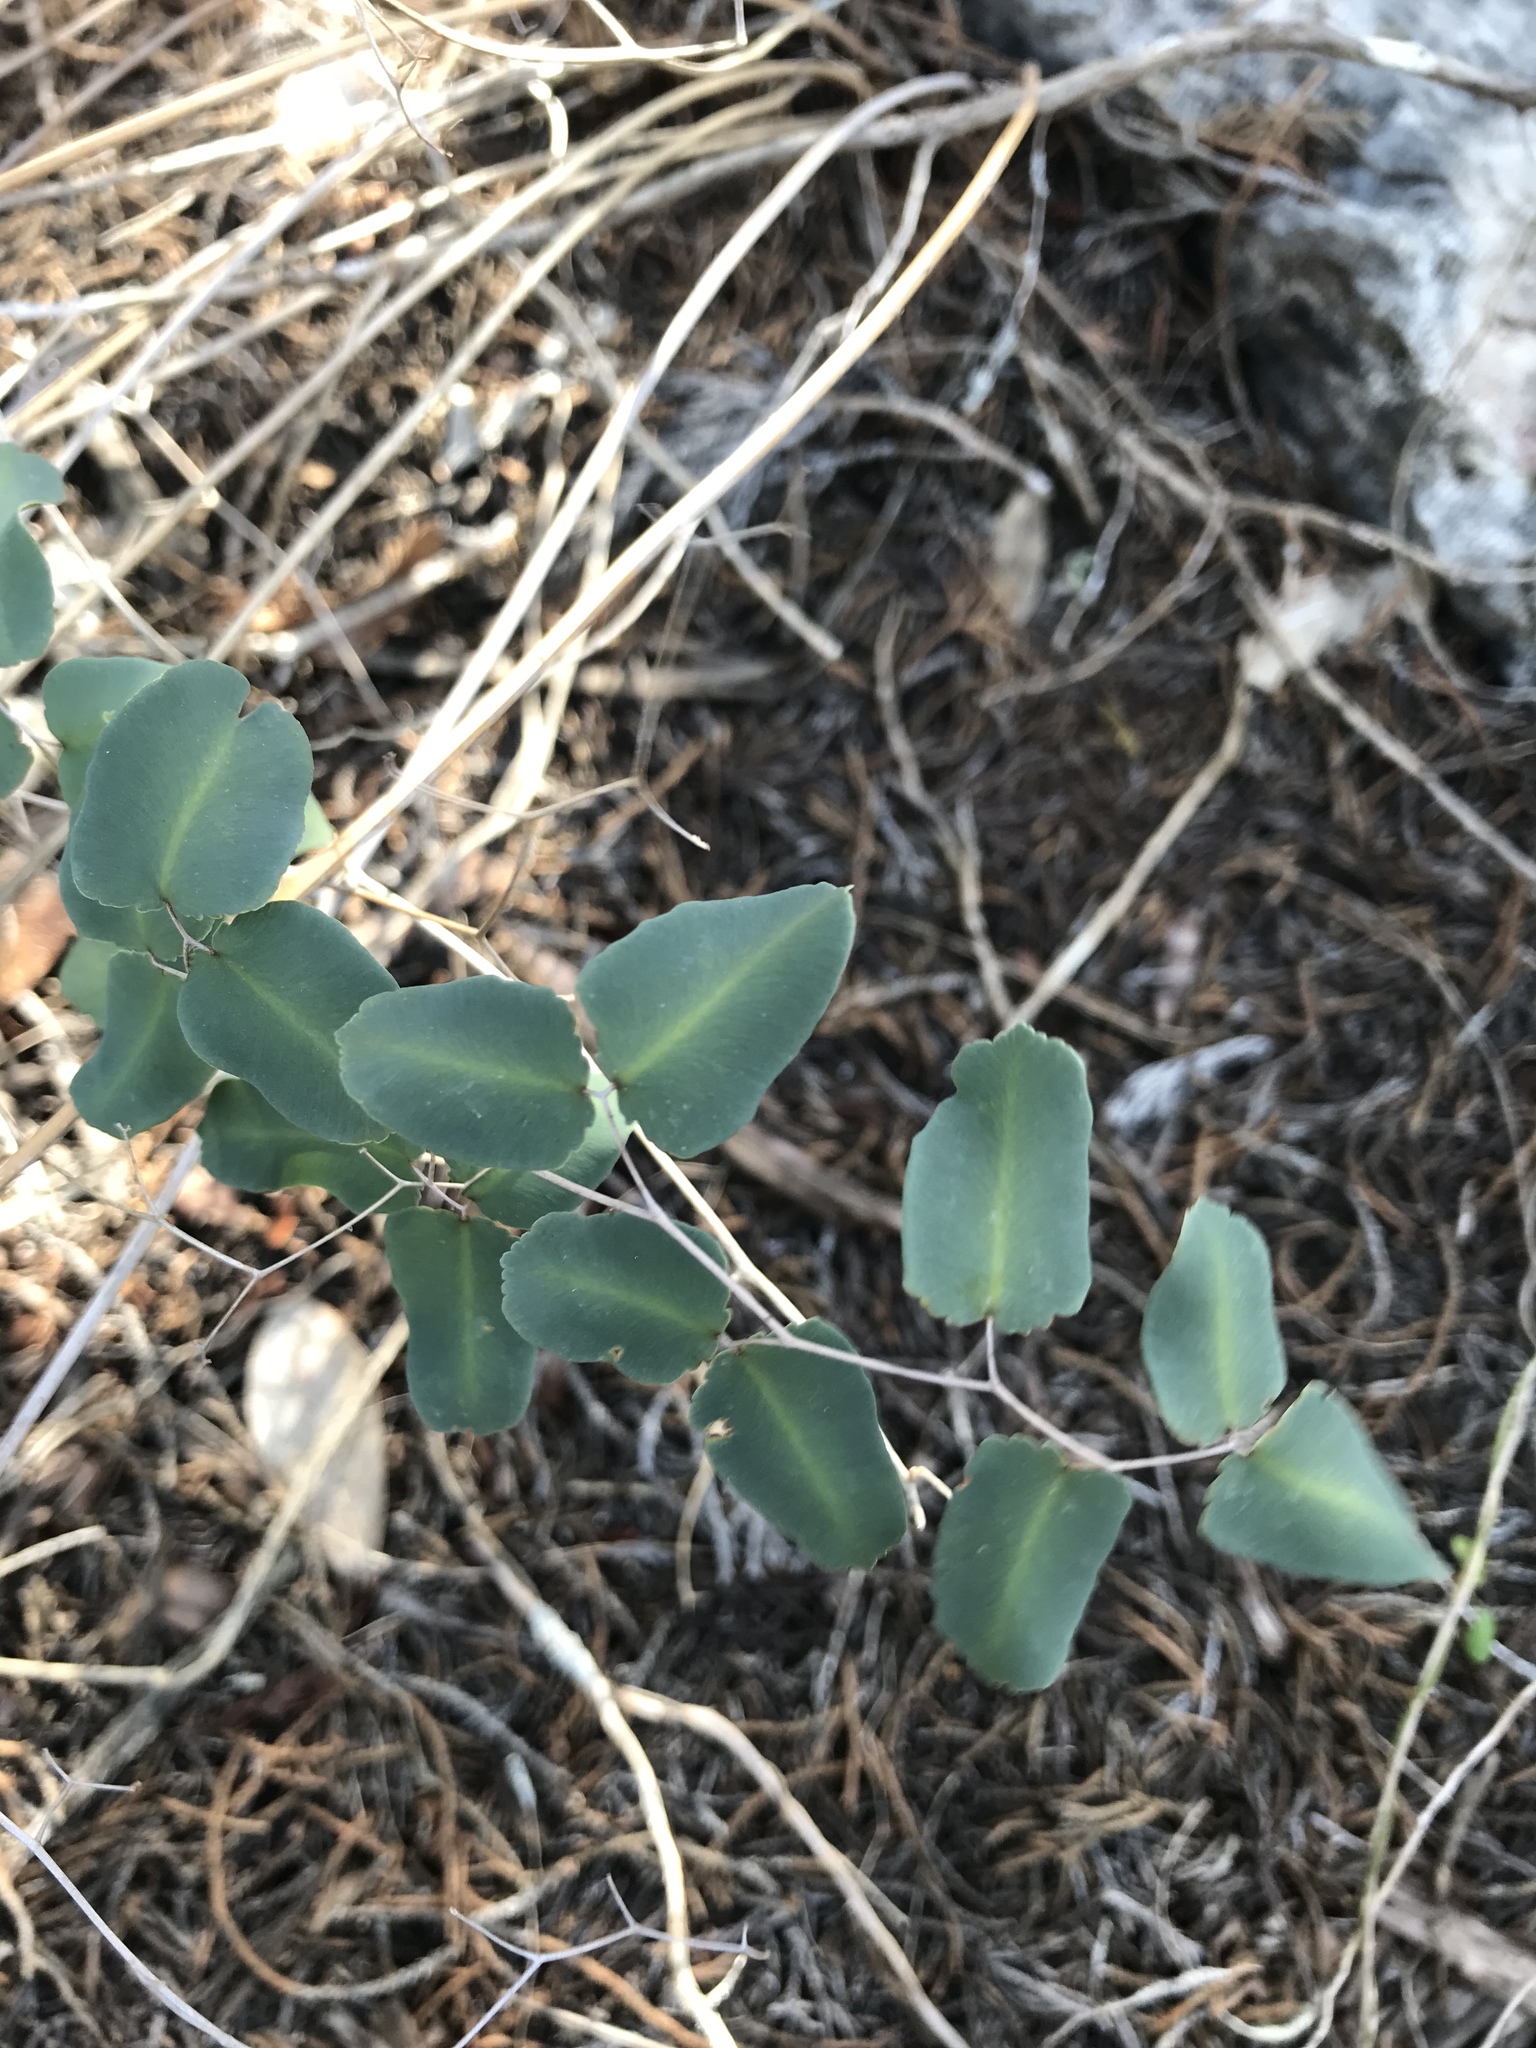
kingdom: Plantae
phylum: Tracheophyta
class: Polypodiopsida
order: Polypodiales
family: Pteridaceae
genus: Pellaea
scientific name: Pellaea ovata
